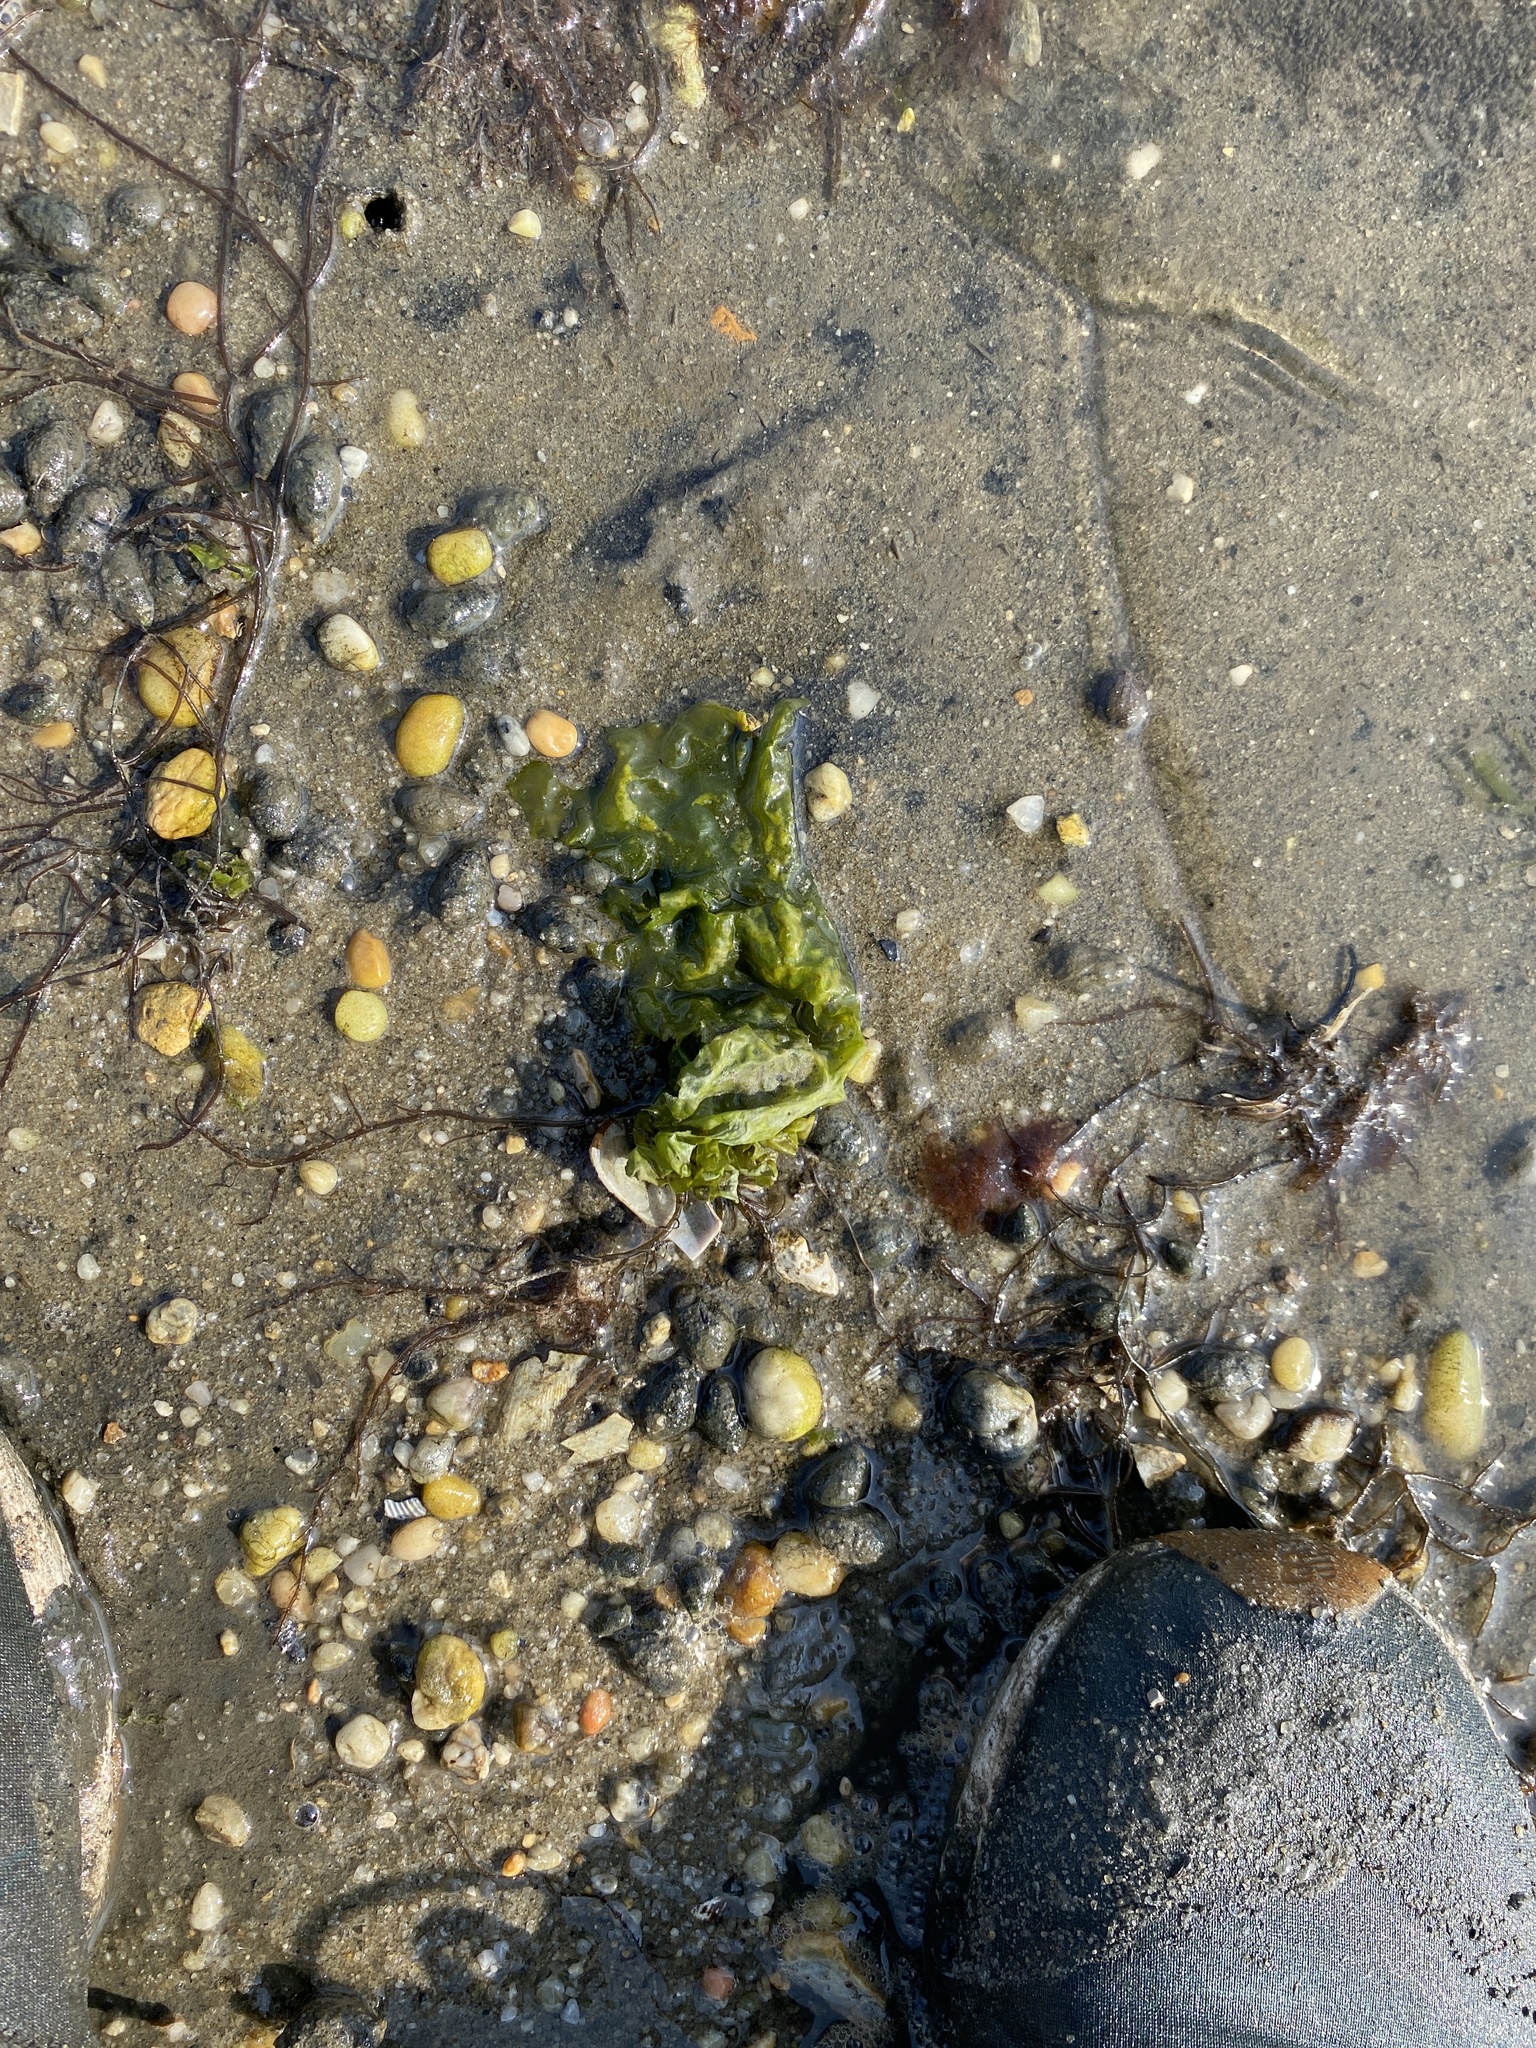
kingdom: Plantae
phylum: Chlorophyta
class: Ulvophyceae
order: Ulvales
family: Ulvaceae
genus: Ulva
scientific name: Ulva lactuca
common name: Sea lettuce
